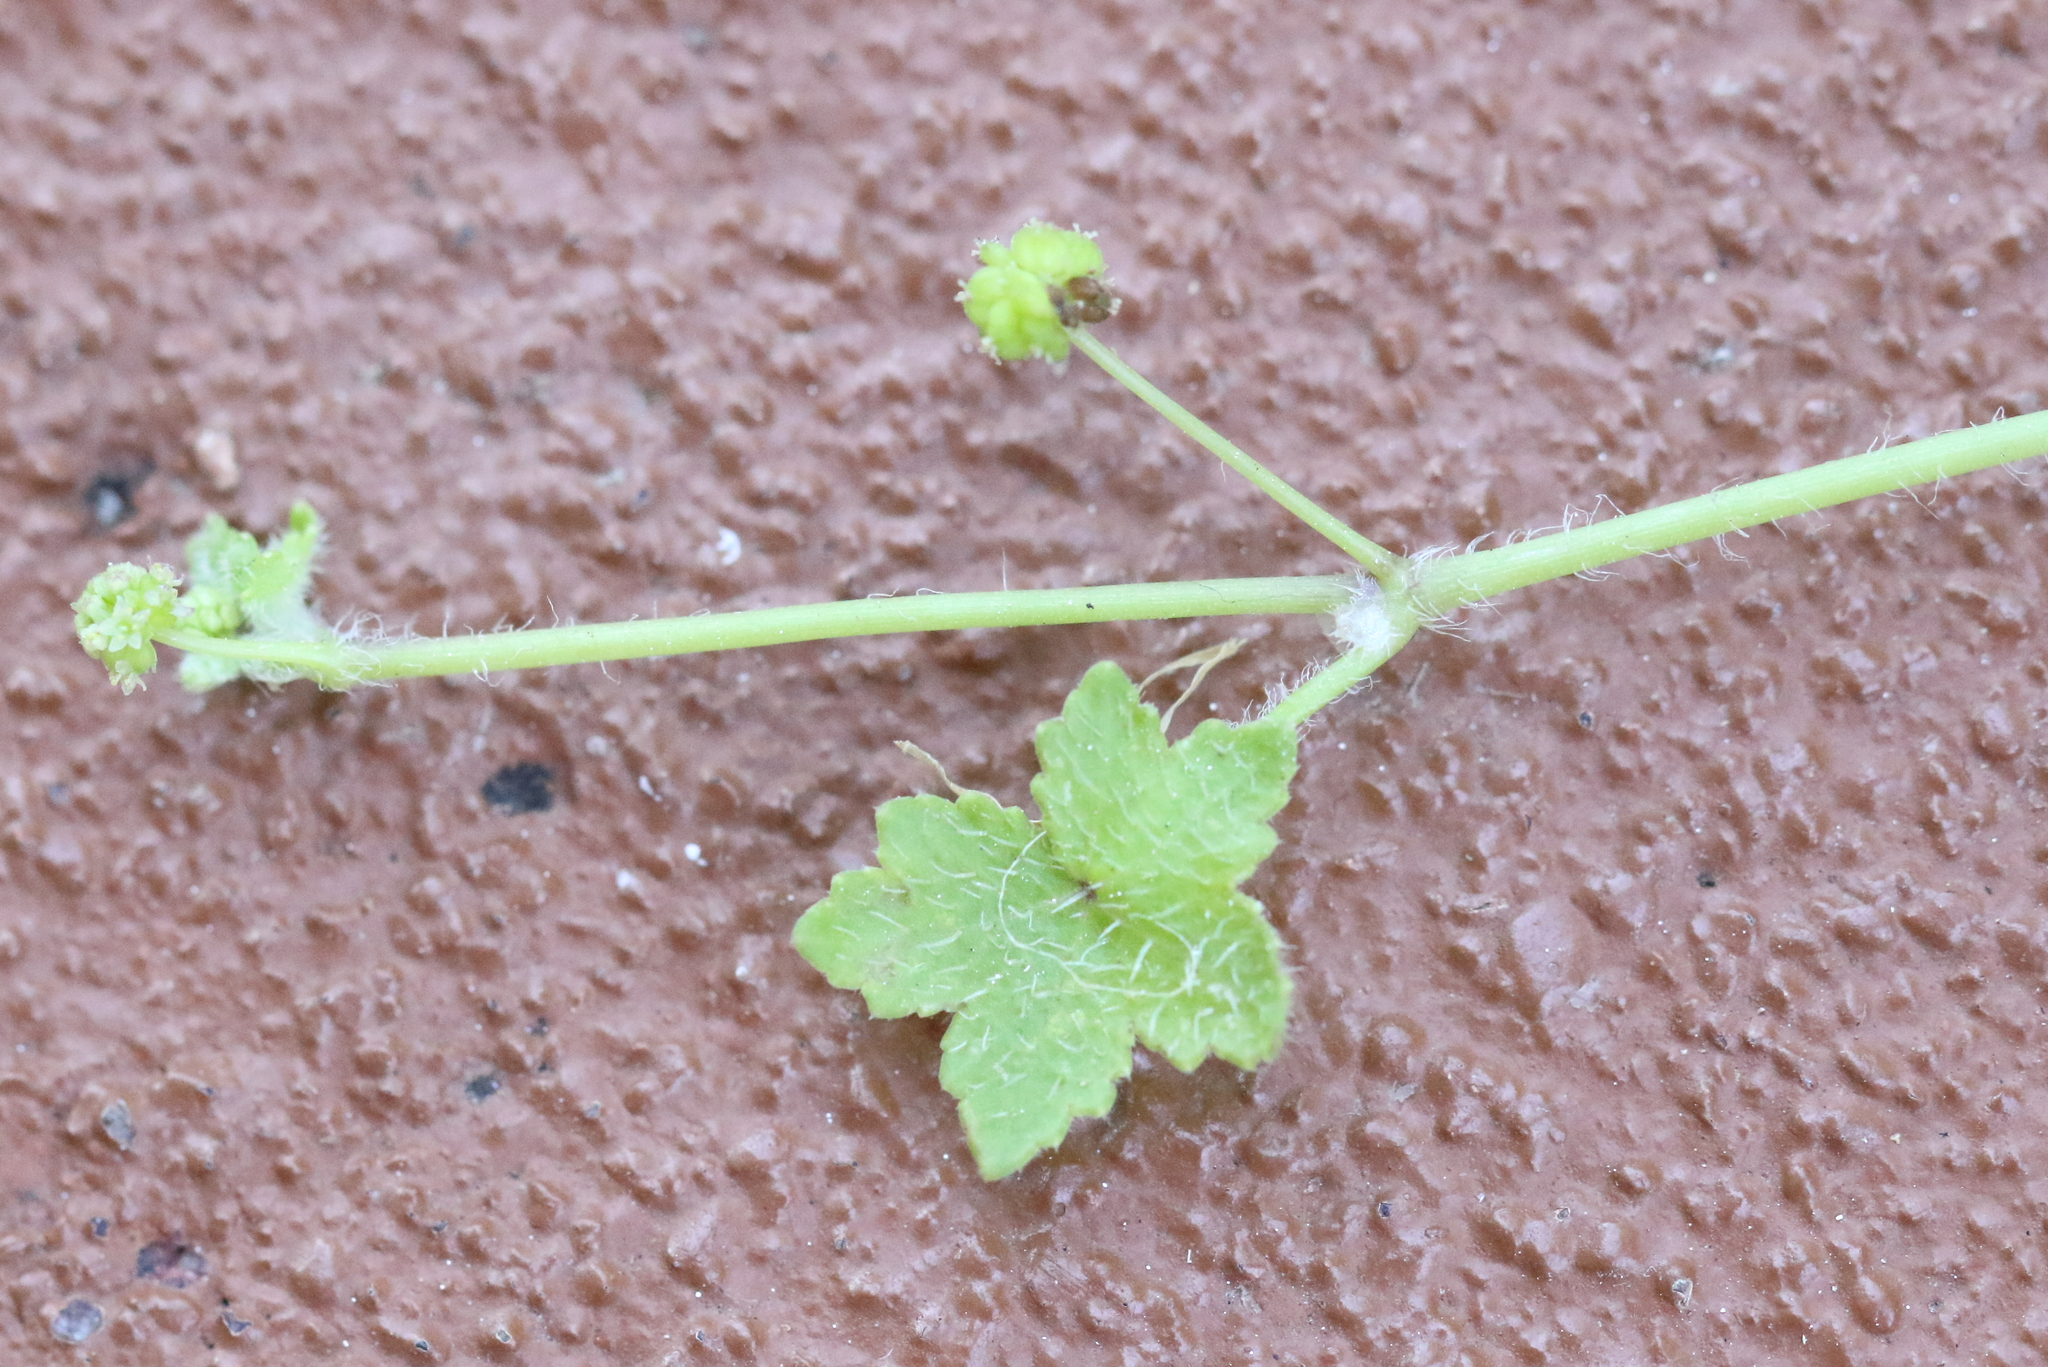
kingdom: Plantae
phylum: Tracheophyta
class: Magnoliopsida
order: Apiales
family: Araliaceae
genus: Hydrocotyle
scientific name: Hydrocotyle acutiloba
